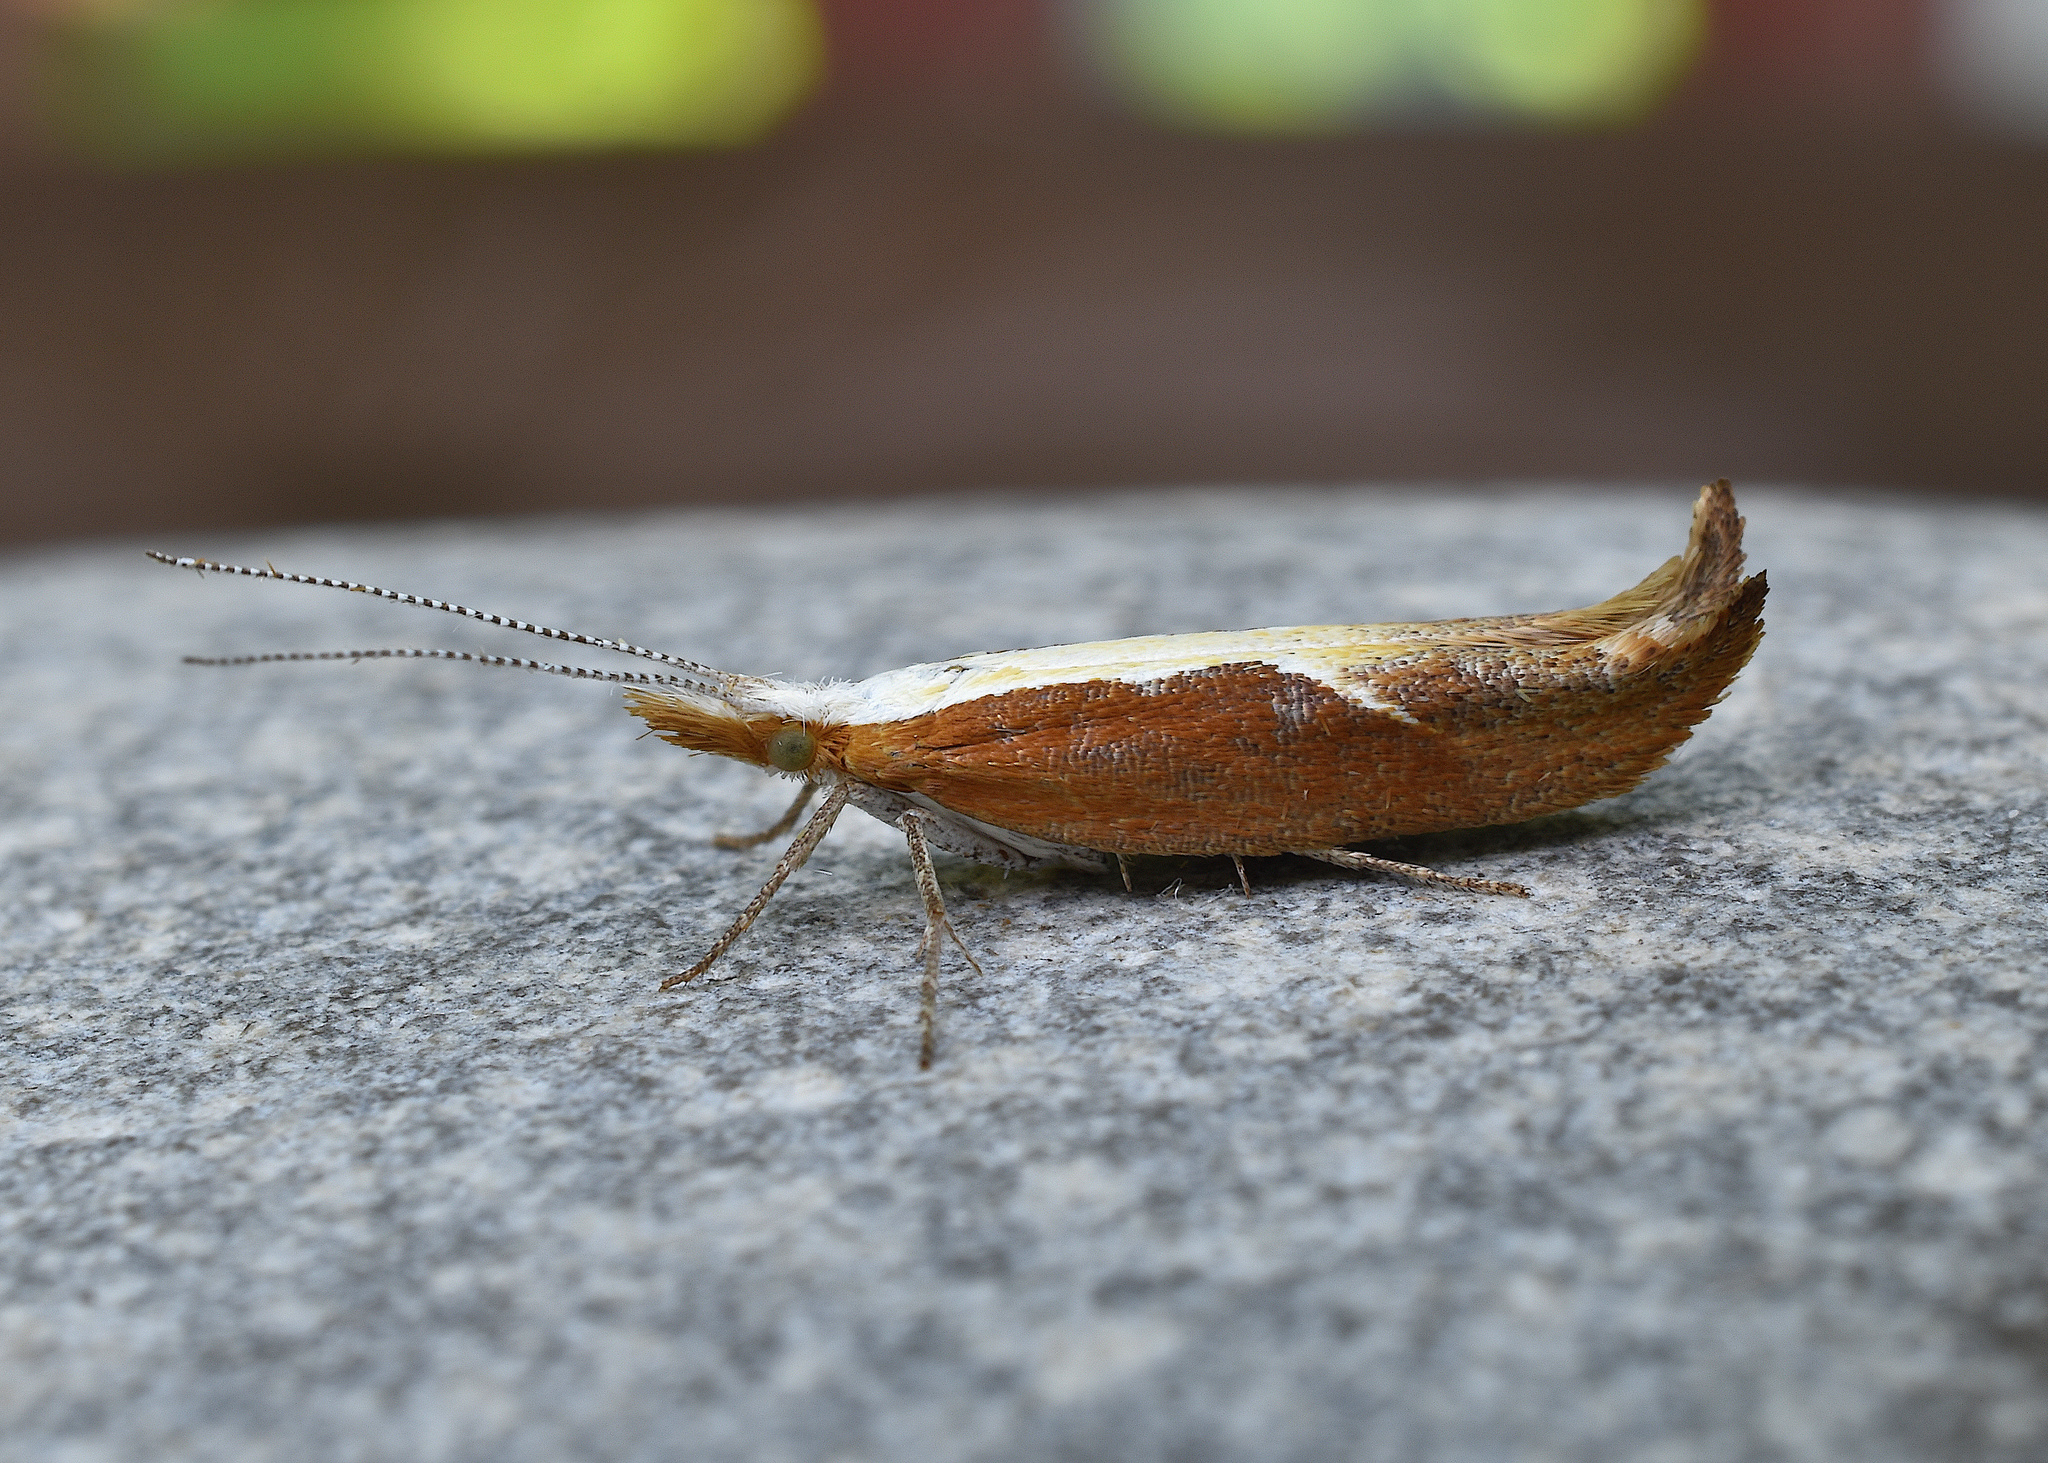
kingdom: Animalia
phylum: Arthropoda
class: Insecta
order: Lepidoptera
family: Ypsolophidae
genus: Ypsolopha
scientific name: Ypsolopha dentella
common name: Honeysuckle moth
